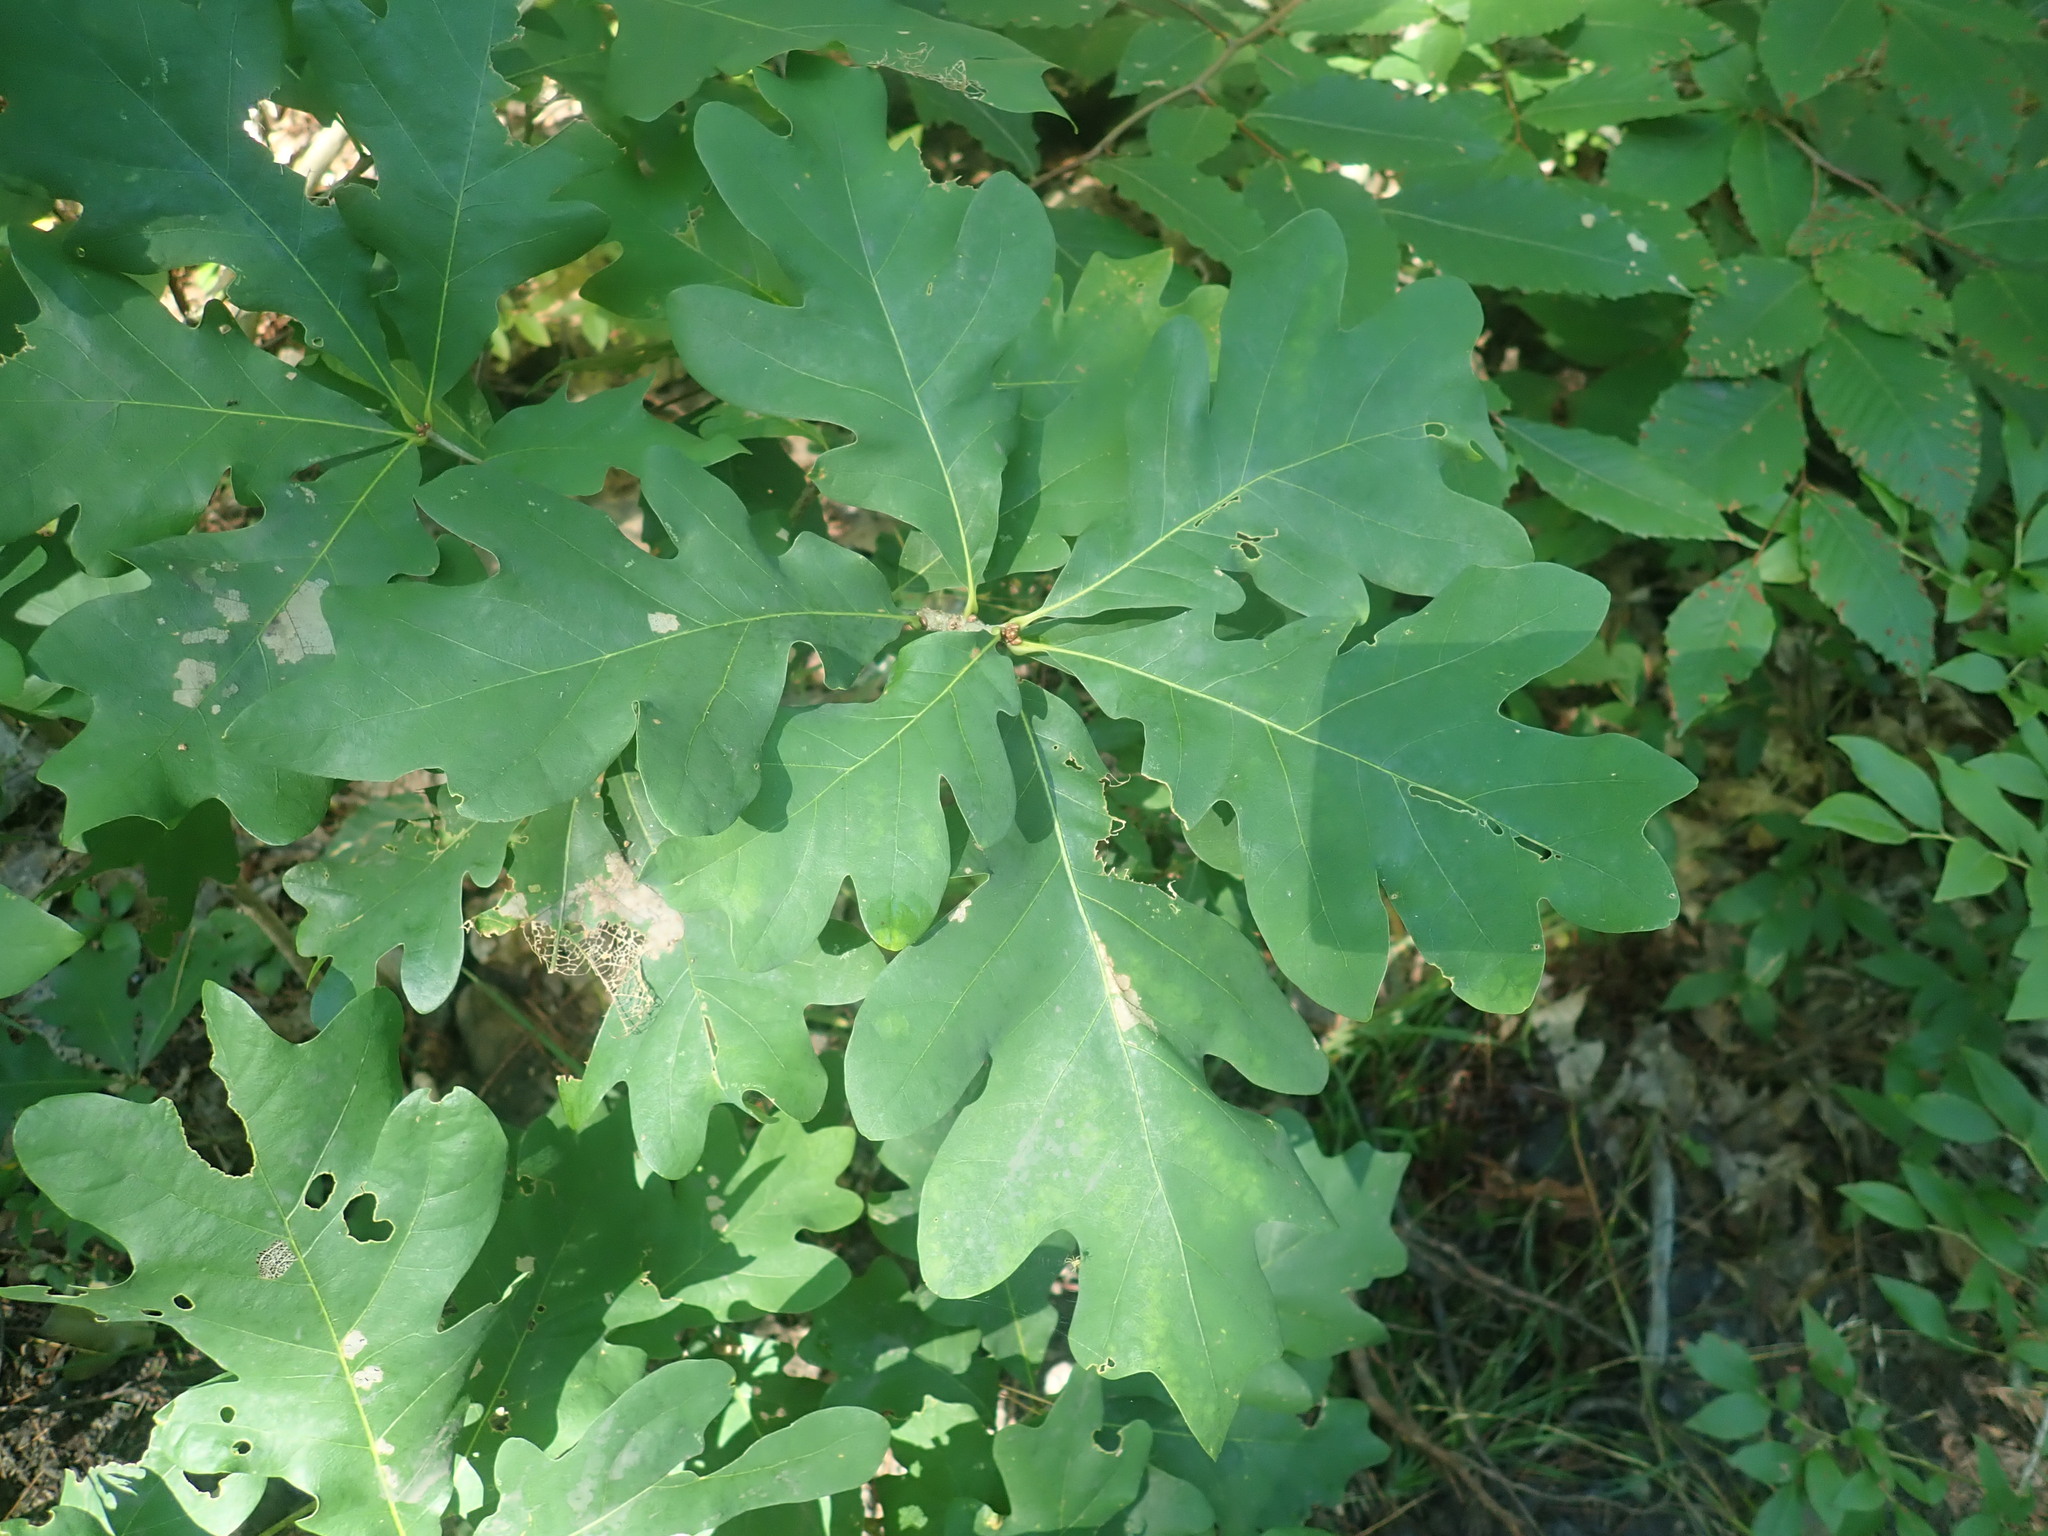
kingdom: Plantae
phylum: Tracheophyta
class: Magnoliopsida
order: Fagales
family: Fagaceae
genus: Quercus
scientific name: Quercus alba
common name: White oak
